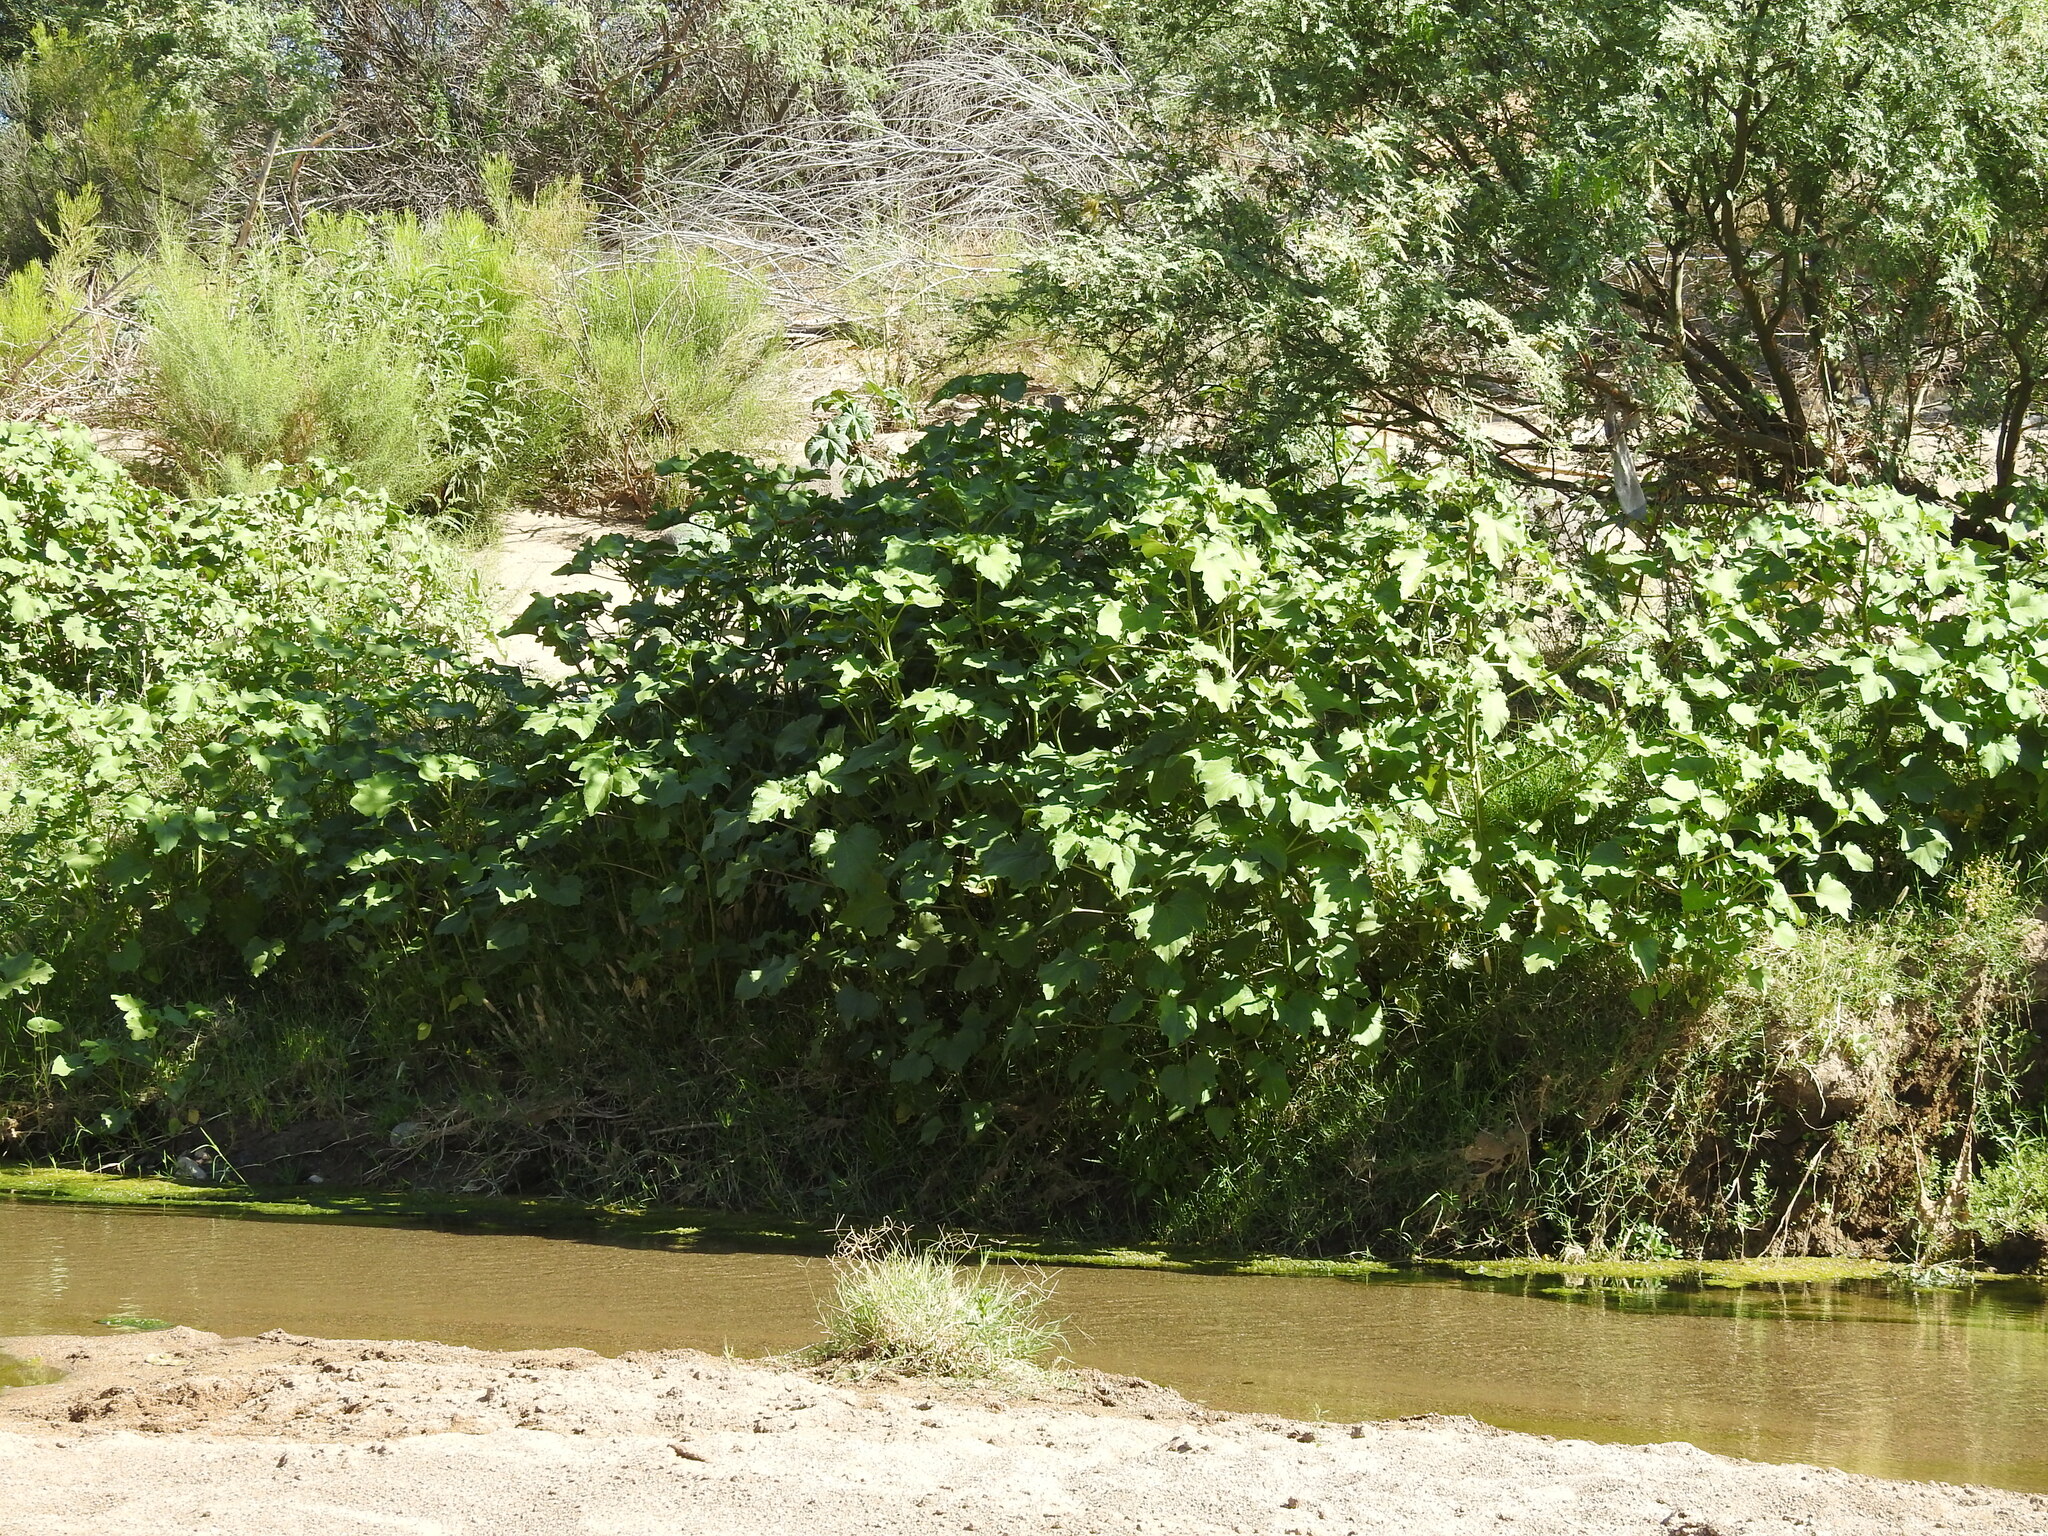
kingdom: Plantae
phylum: Tracheophyta
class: Magnoliopsida
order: Asterales
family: Asteraceae
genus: Xanthium
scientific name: Xanthium strumarium
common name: Rough cocklebur
